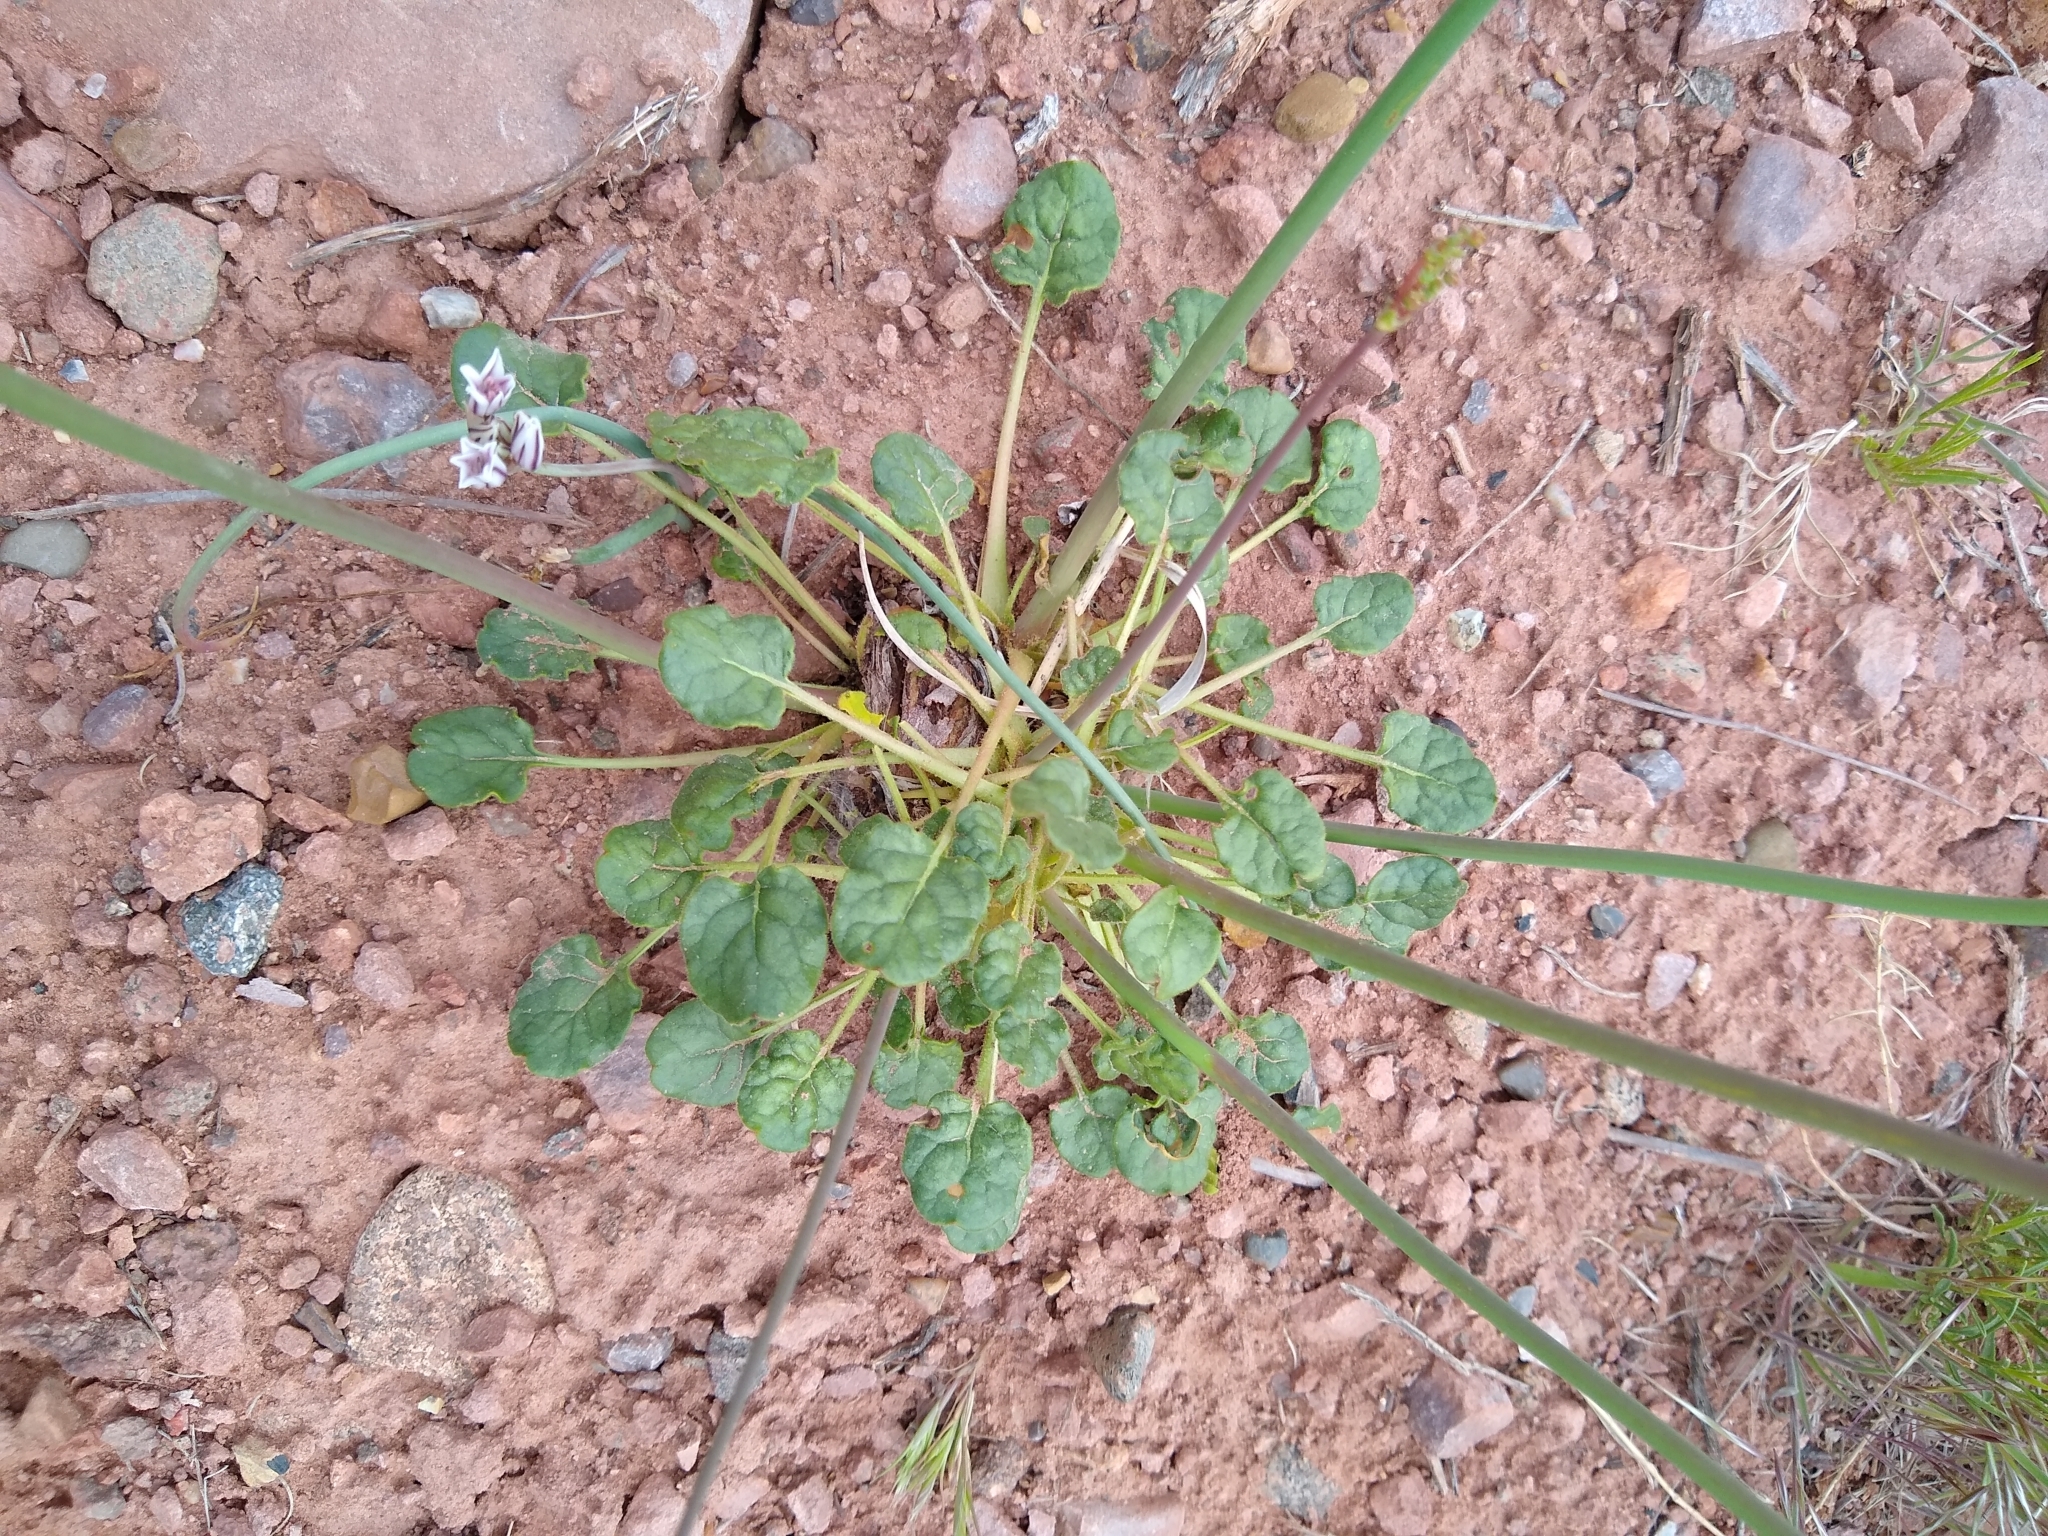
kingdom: Plantae
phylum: Tracheophyta
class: Magnoliopsida
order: Caryophyllales
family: Polygonaceae
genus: Eriogonum
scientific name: Eriogonum inflatum
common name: Desert trumpet
